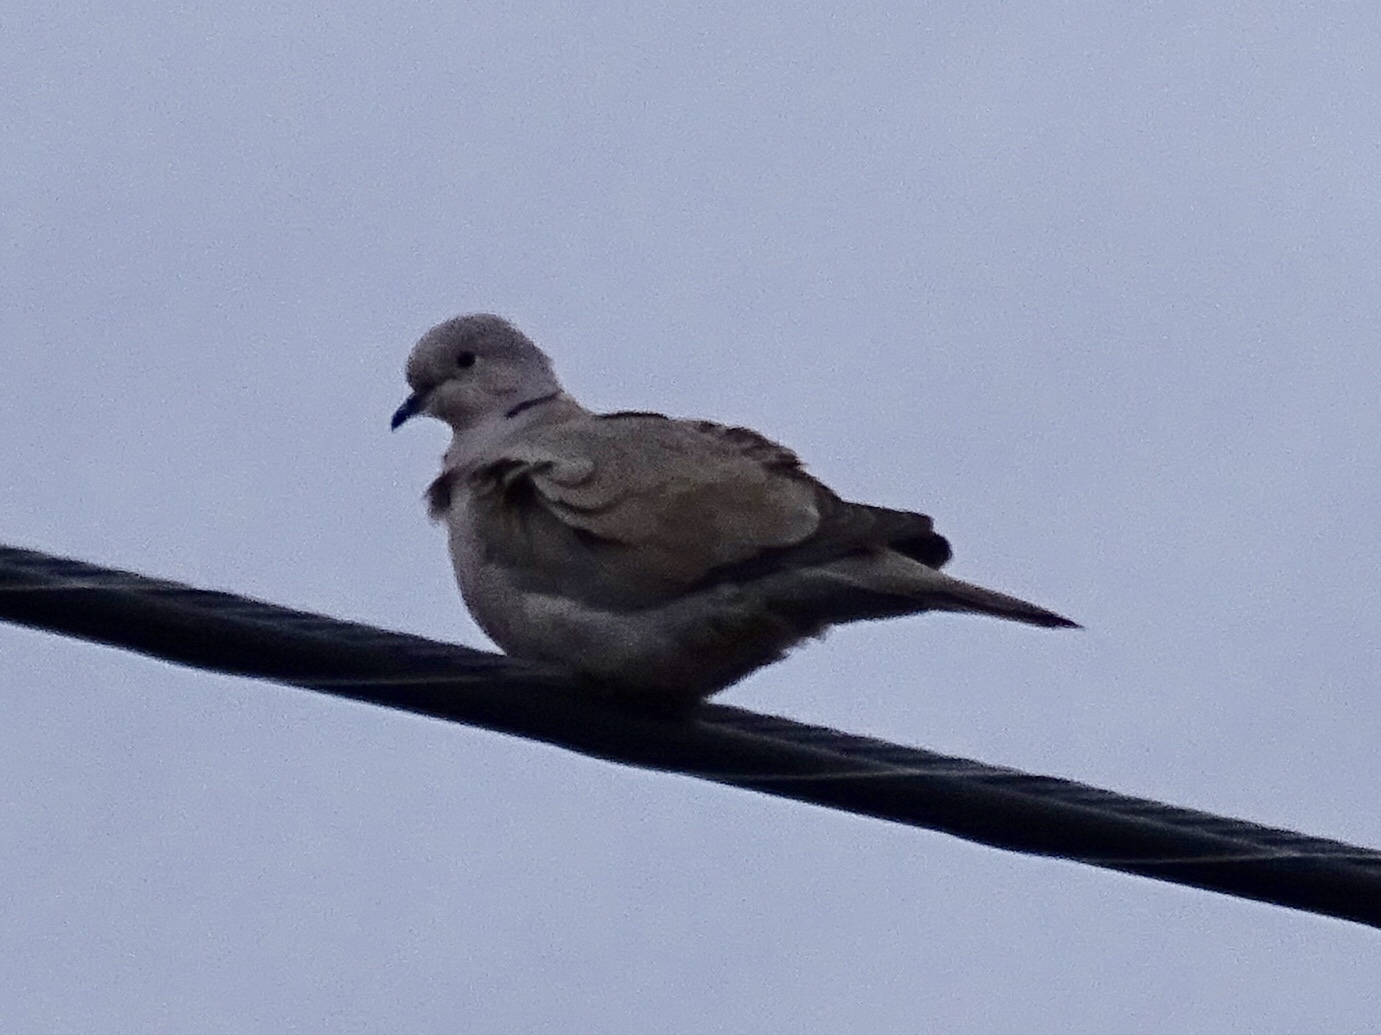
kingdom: Animalia
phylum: Chordata
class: Aves
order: Columbiformes
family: Columbidae
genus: Streptopelia
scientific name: Streptopelia decaocto
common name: Eurasian collared dove
